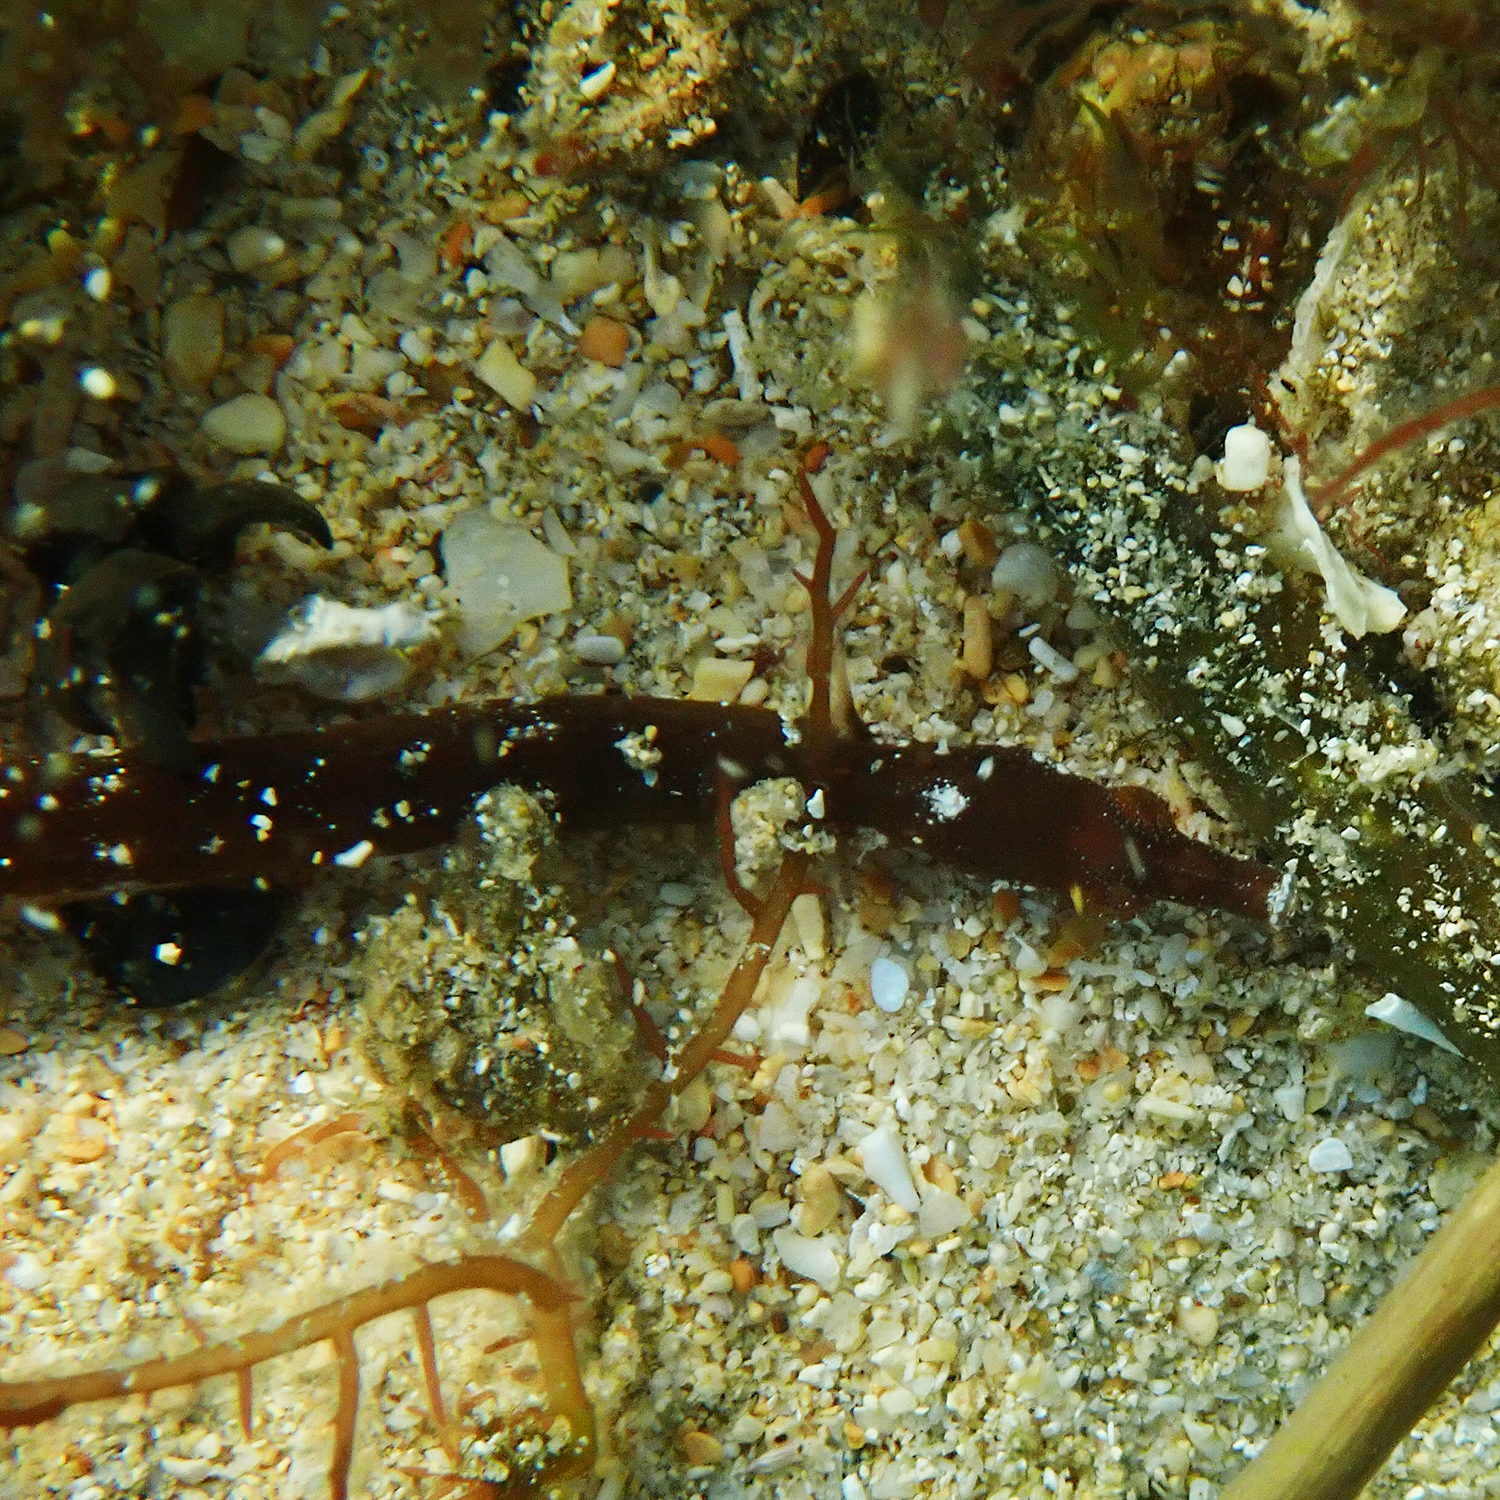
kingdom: Animalia
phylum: Chordata
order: Syngnathiformes
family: Syngnathidae
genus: Halicampus
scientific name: Halicampus boothae
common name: Booth's pipefish
